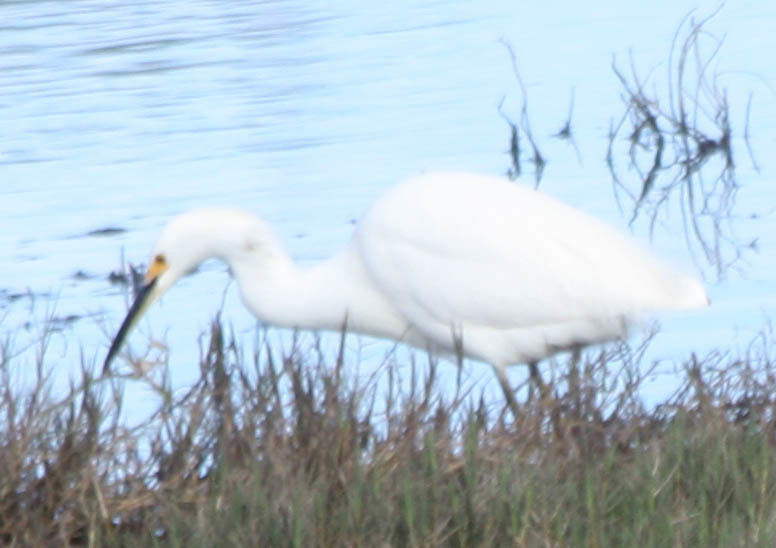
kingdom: Animalia
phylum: Chordata
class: Aves
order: Pelecaniformes
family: Ardeidae
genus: Egretta
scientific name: Egretta thula
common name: Snowy egret
